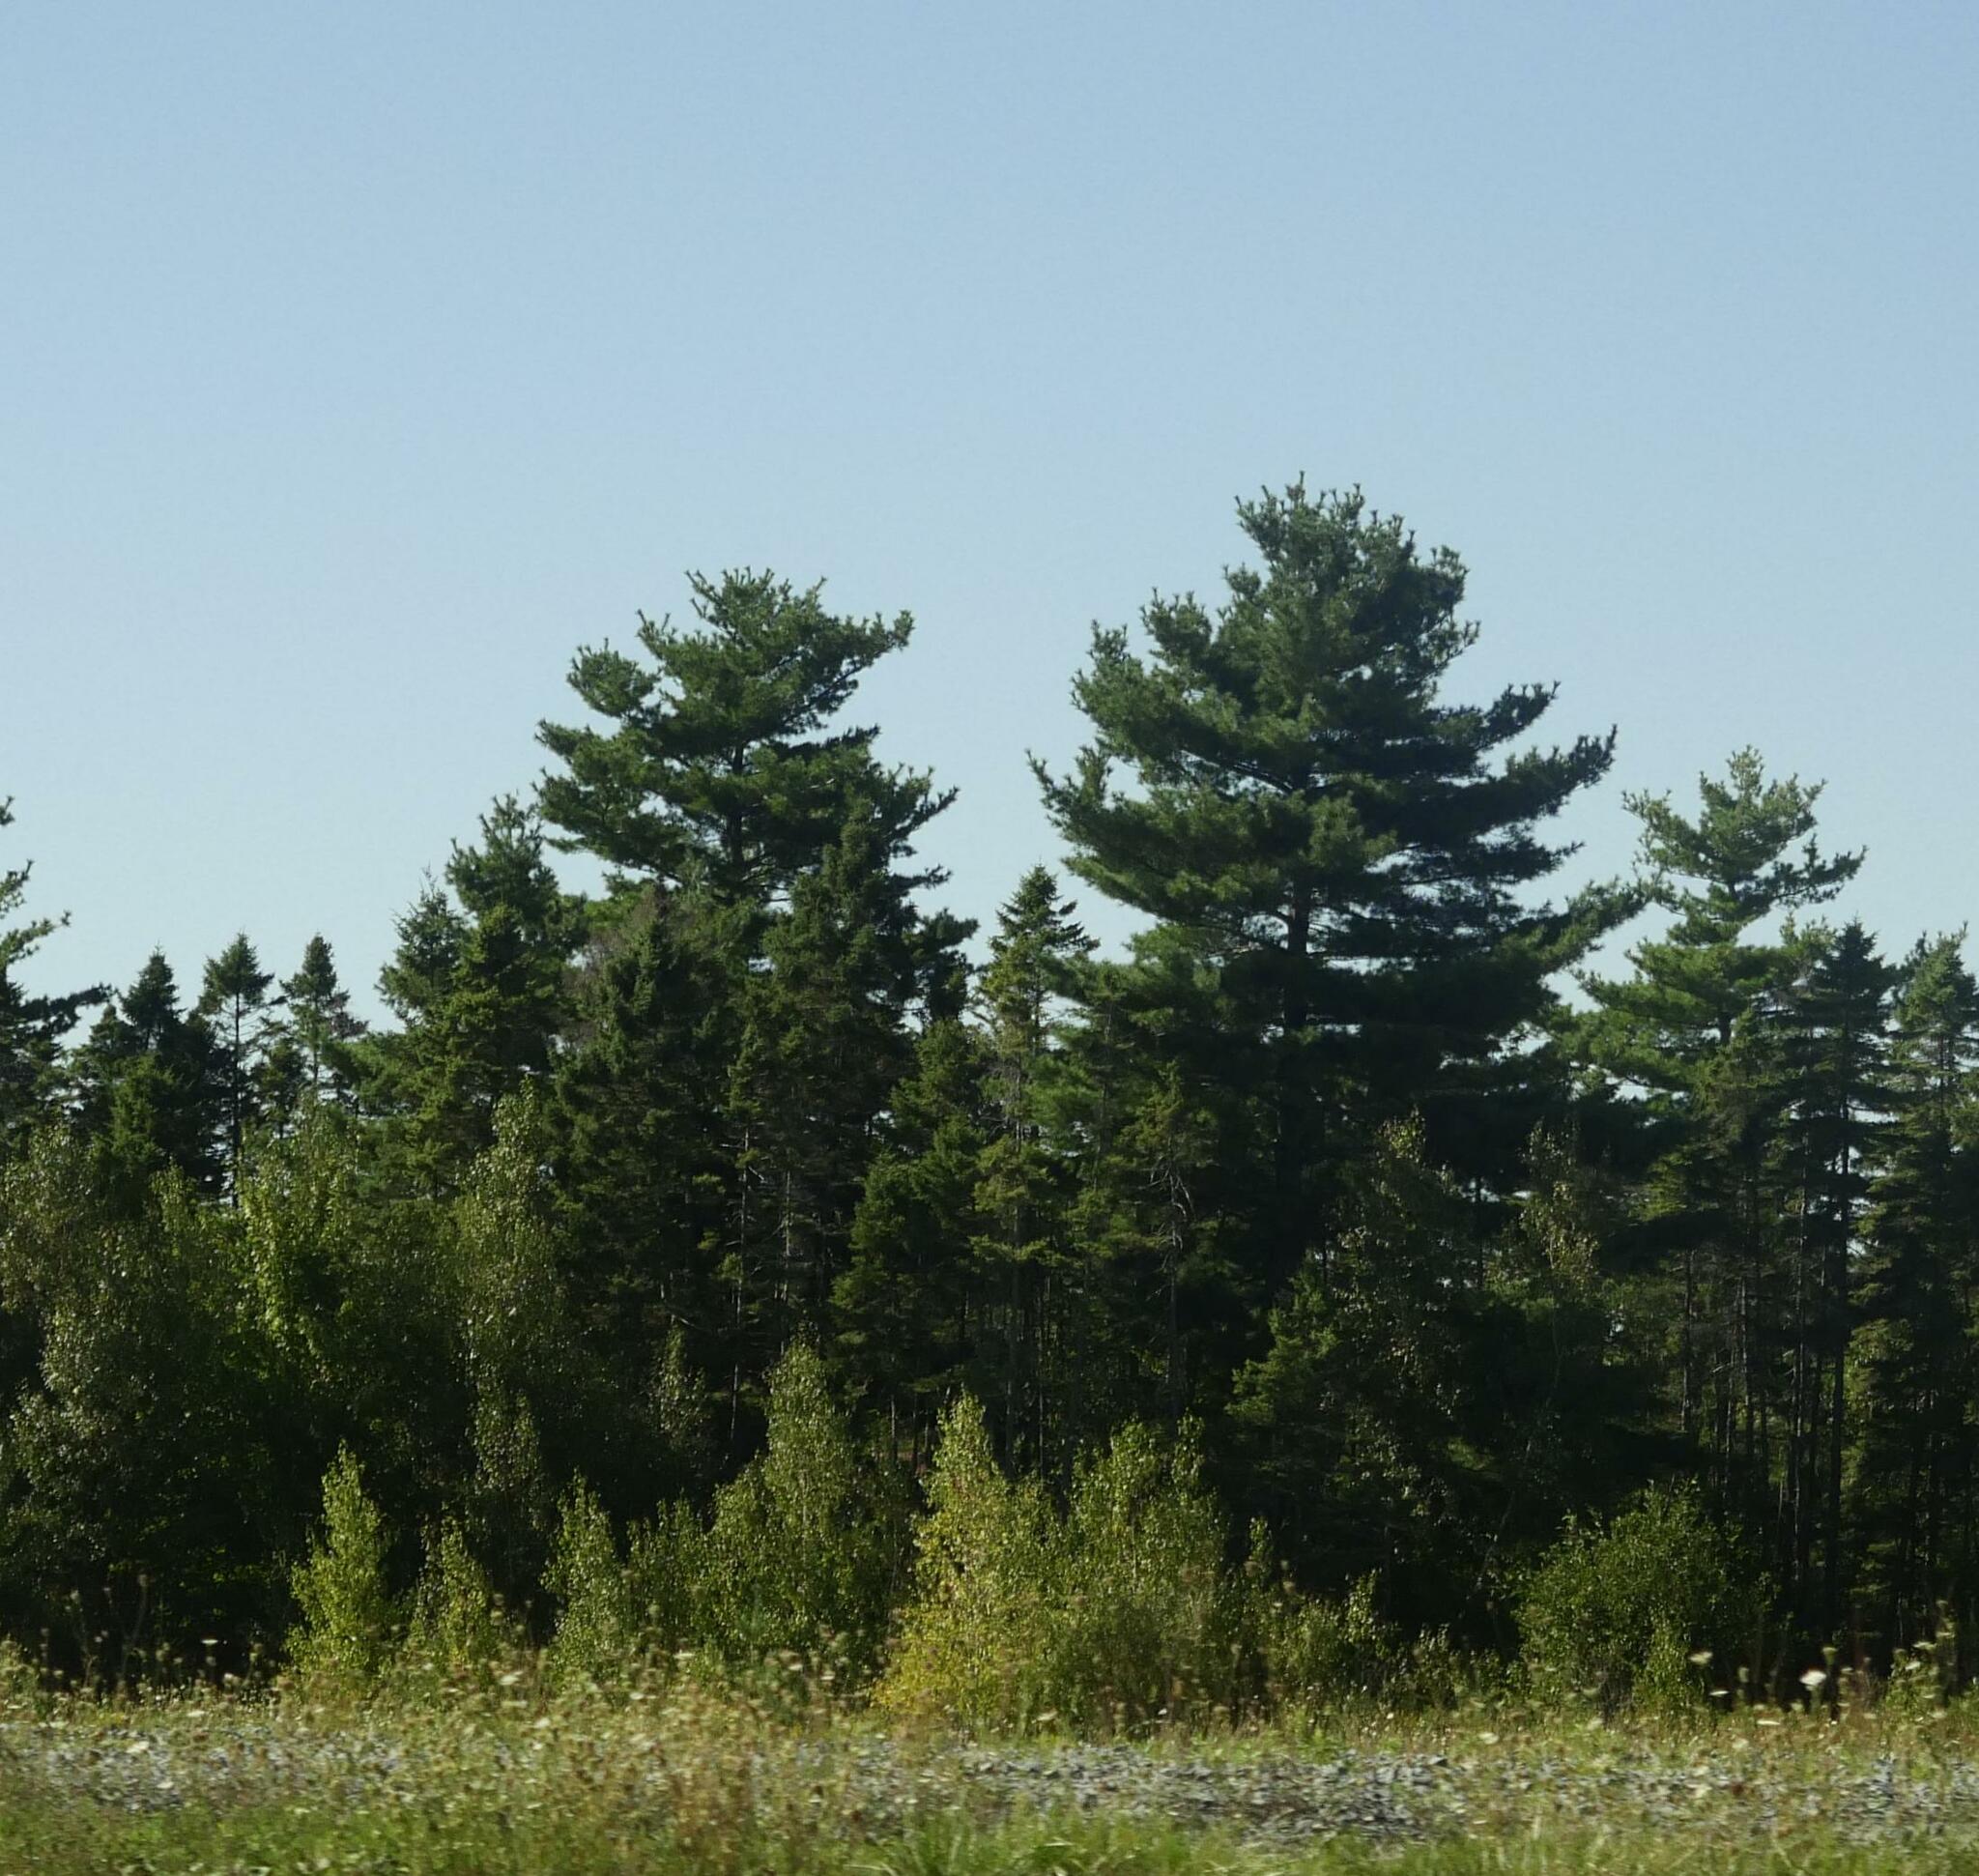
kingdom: Plantae
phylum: Tracheophyta
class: Pinopsida
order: Pinales
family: Pinaceae
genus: Pinus
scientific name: Pinus strobus
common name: Weymouth pine
